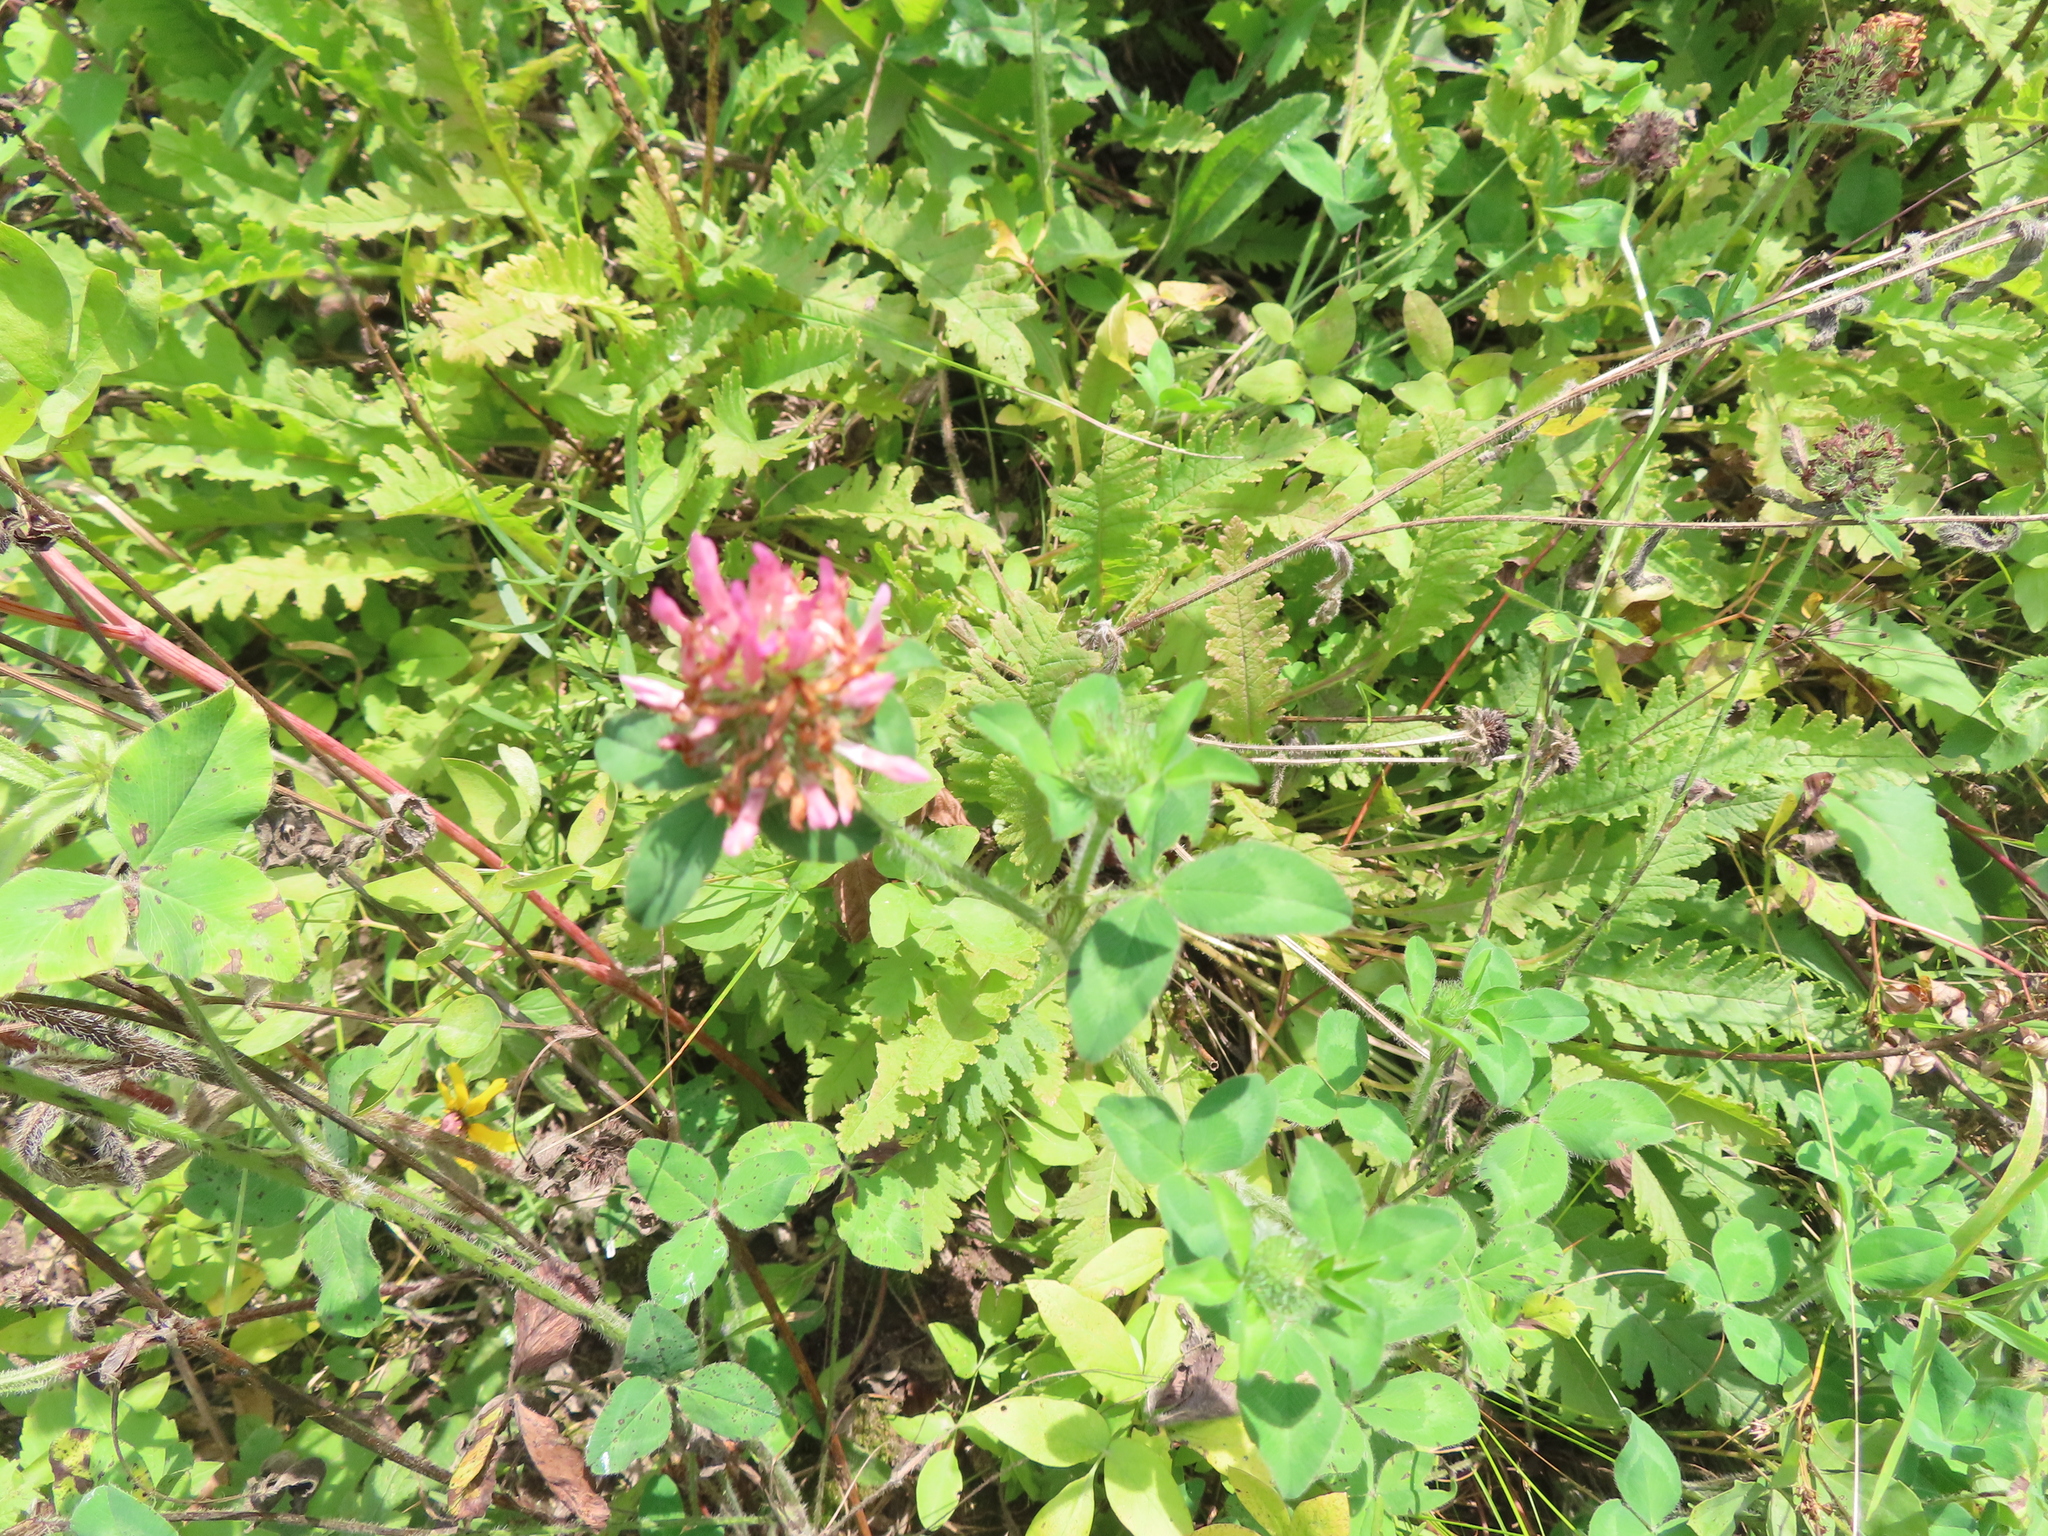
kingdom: Plantae
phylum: Tracheophyta
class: Magnoliopsida
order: Fabales
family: Fabaceae
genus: Trifolium
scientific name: Trifolium pratense
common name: Red clover
